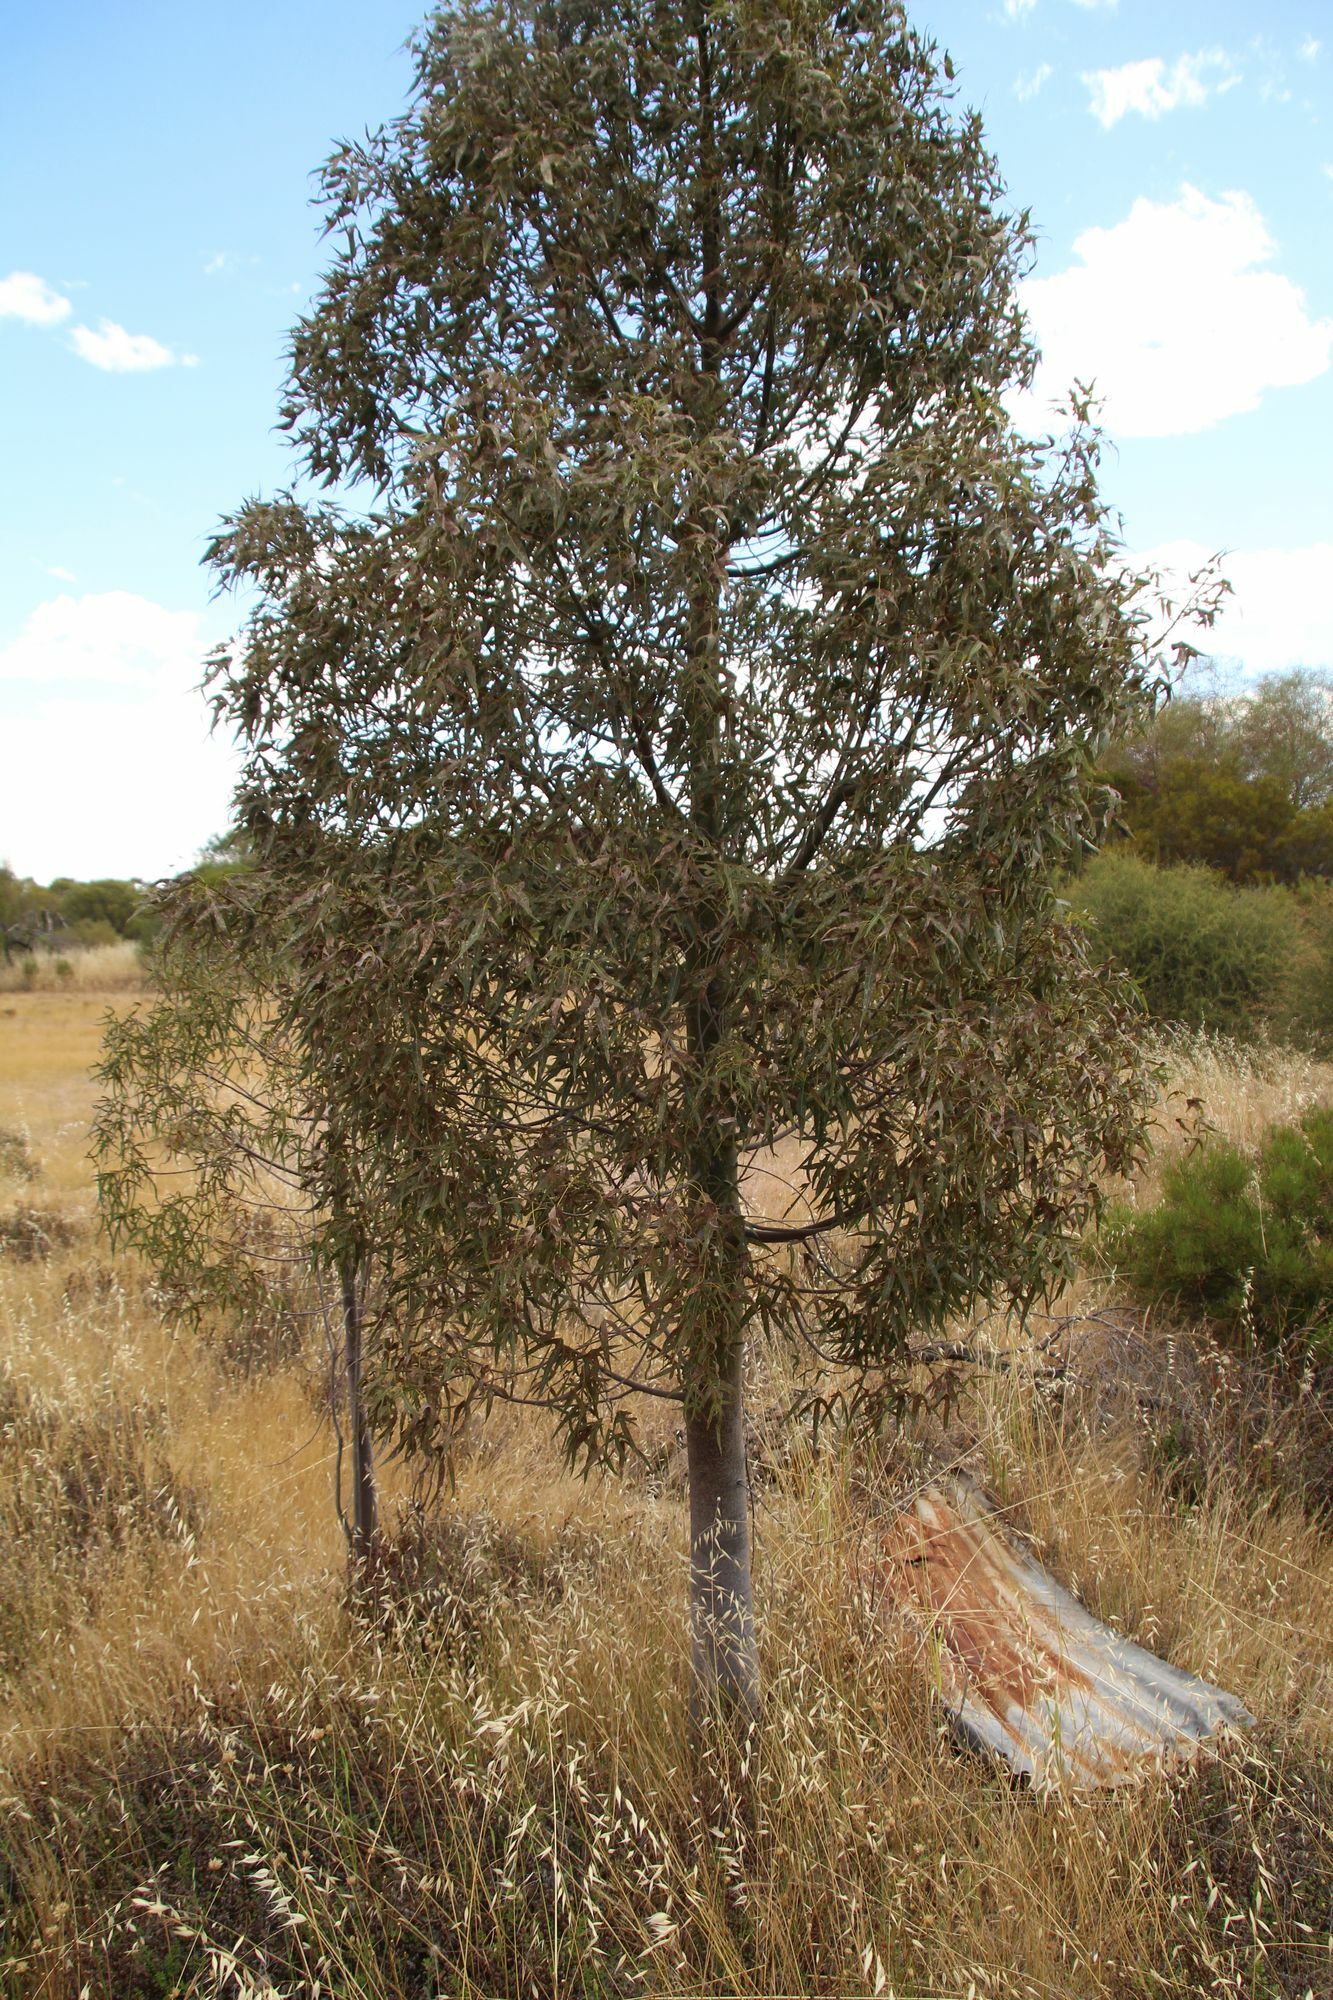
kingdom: Plantae
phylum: Tracheophyta
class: Magnoliopsida
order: Malvales
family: Malvaceae
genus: Brachychiton
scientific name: Brachychiton gregorii
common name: Desert kurrajong
